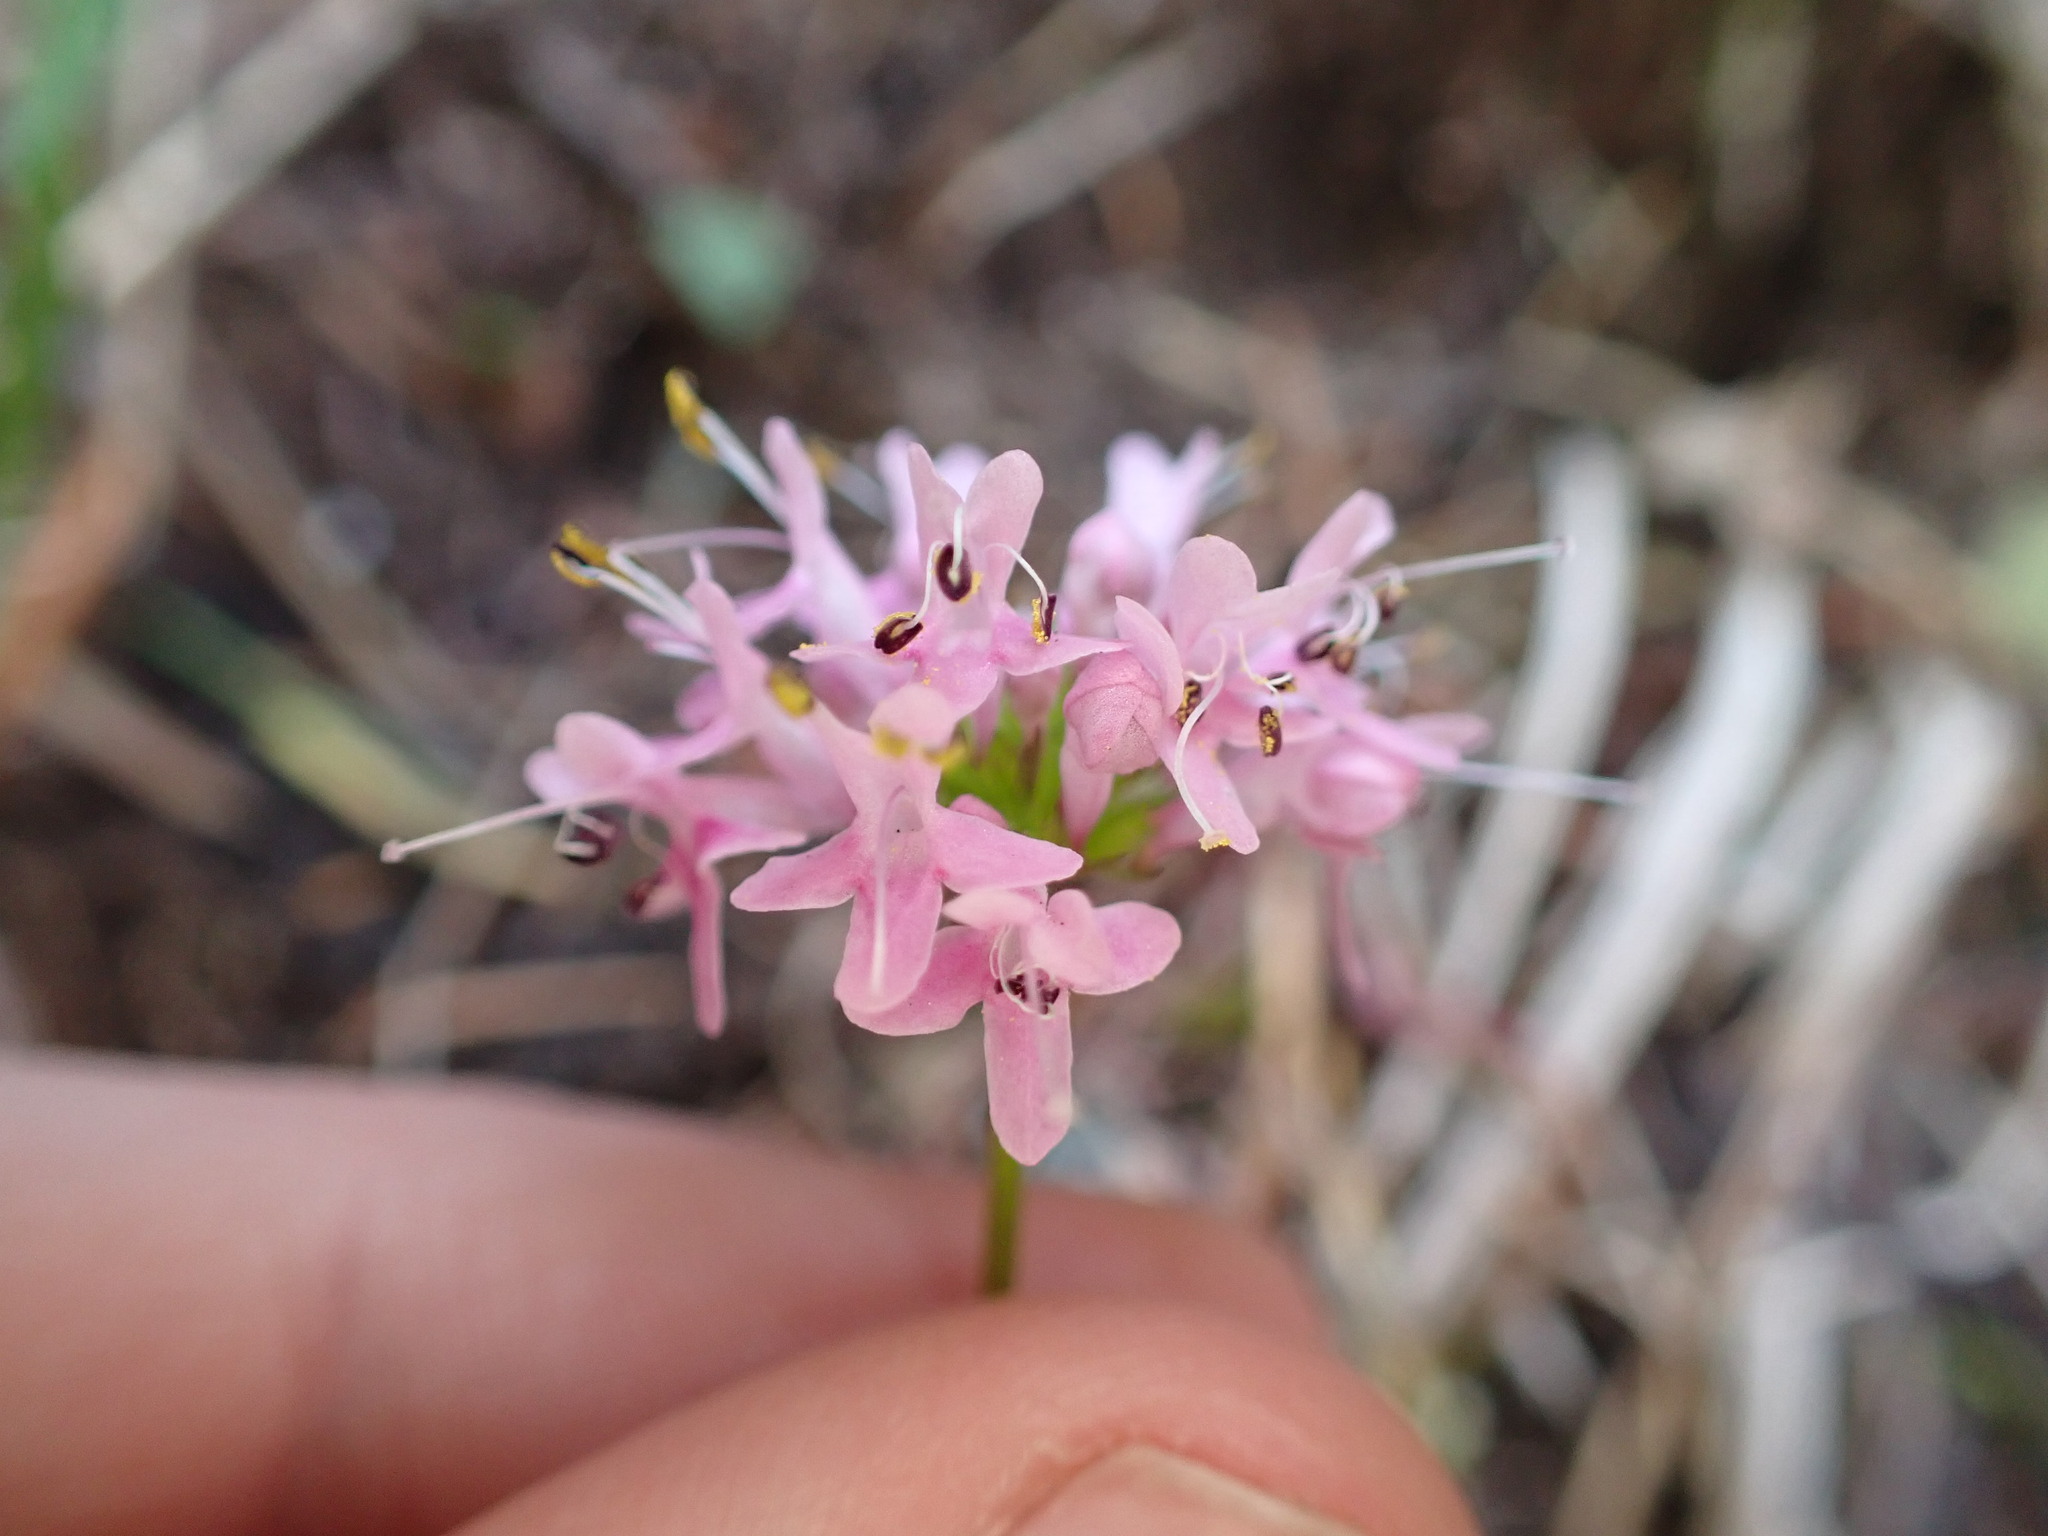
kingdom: Plantae
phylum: Tracheophyta
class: Magnoliopsida
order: Dipsacales
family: Caprifoliaceae
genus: Plectritis
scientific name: Plectritis congesta
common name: Pink plectritis
